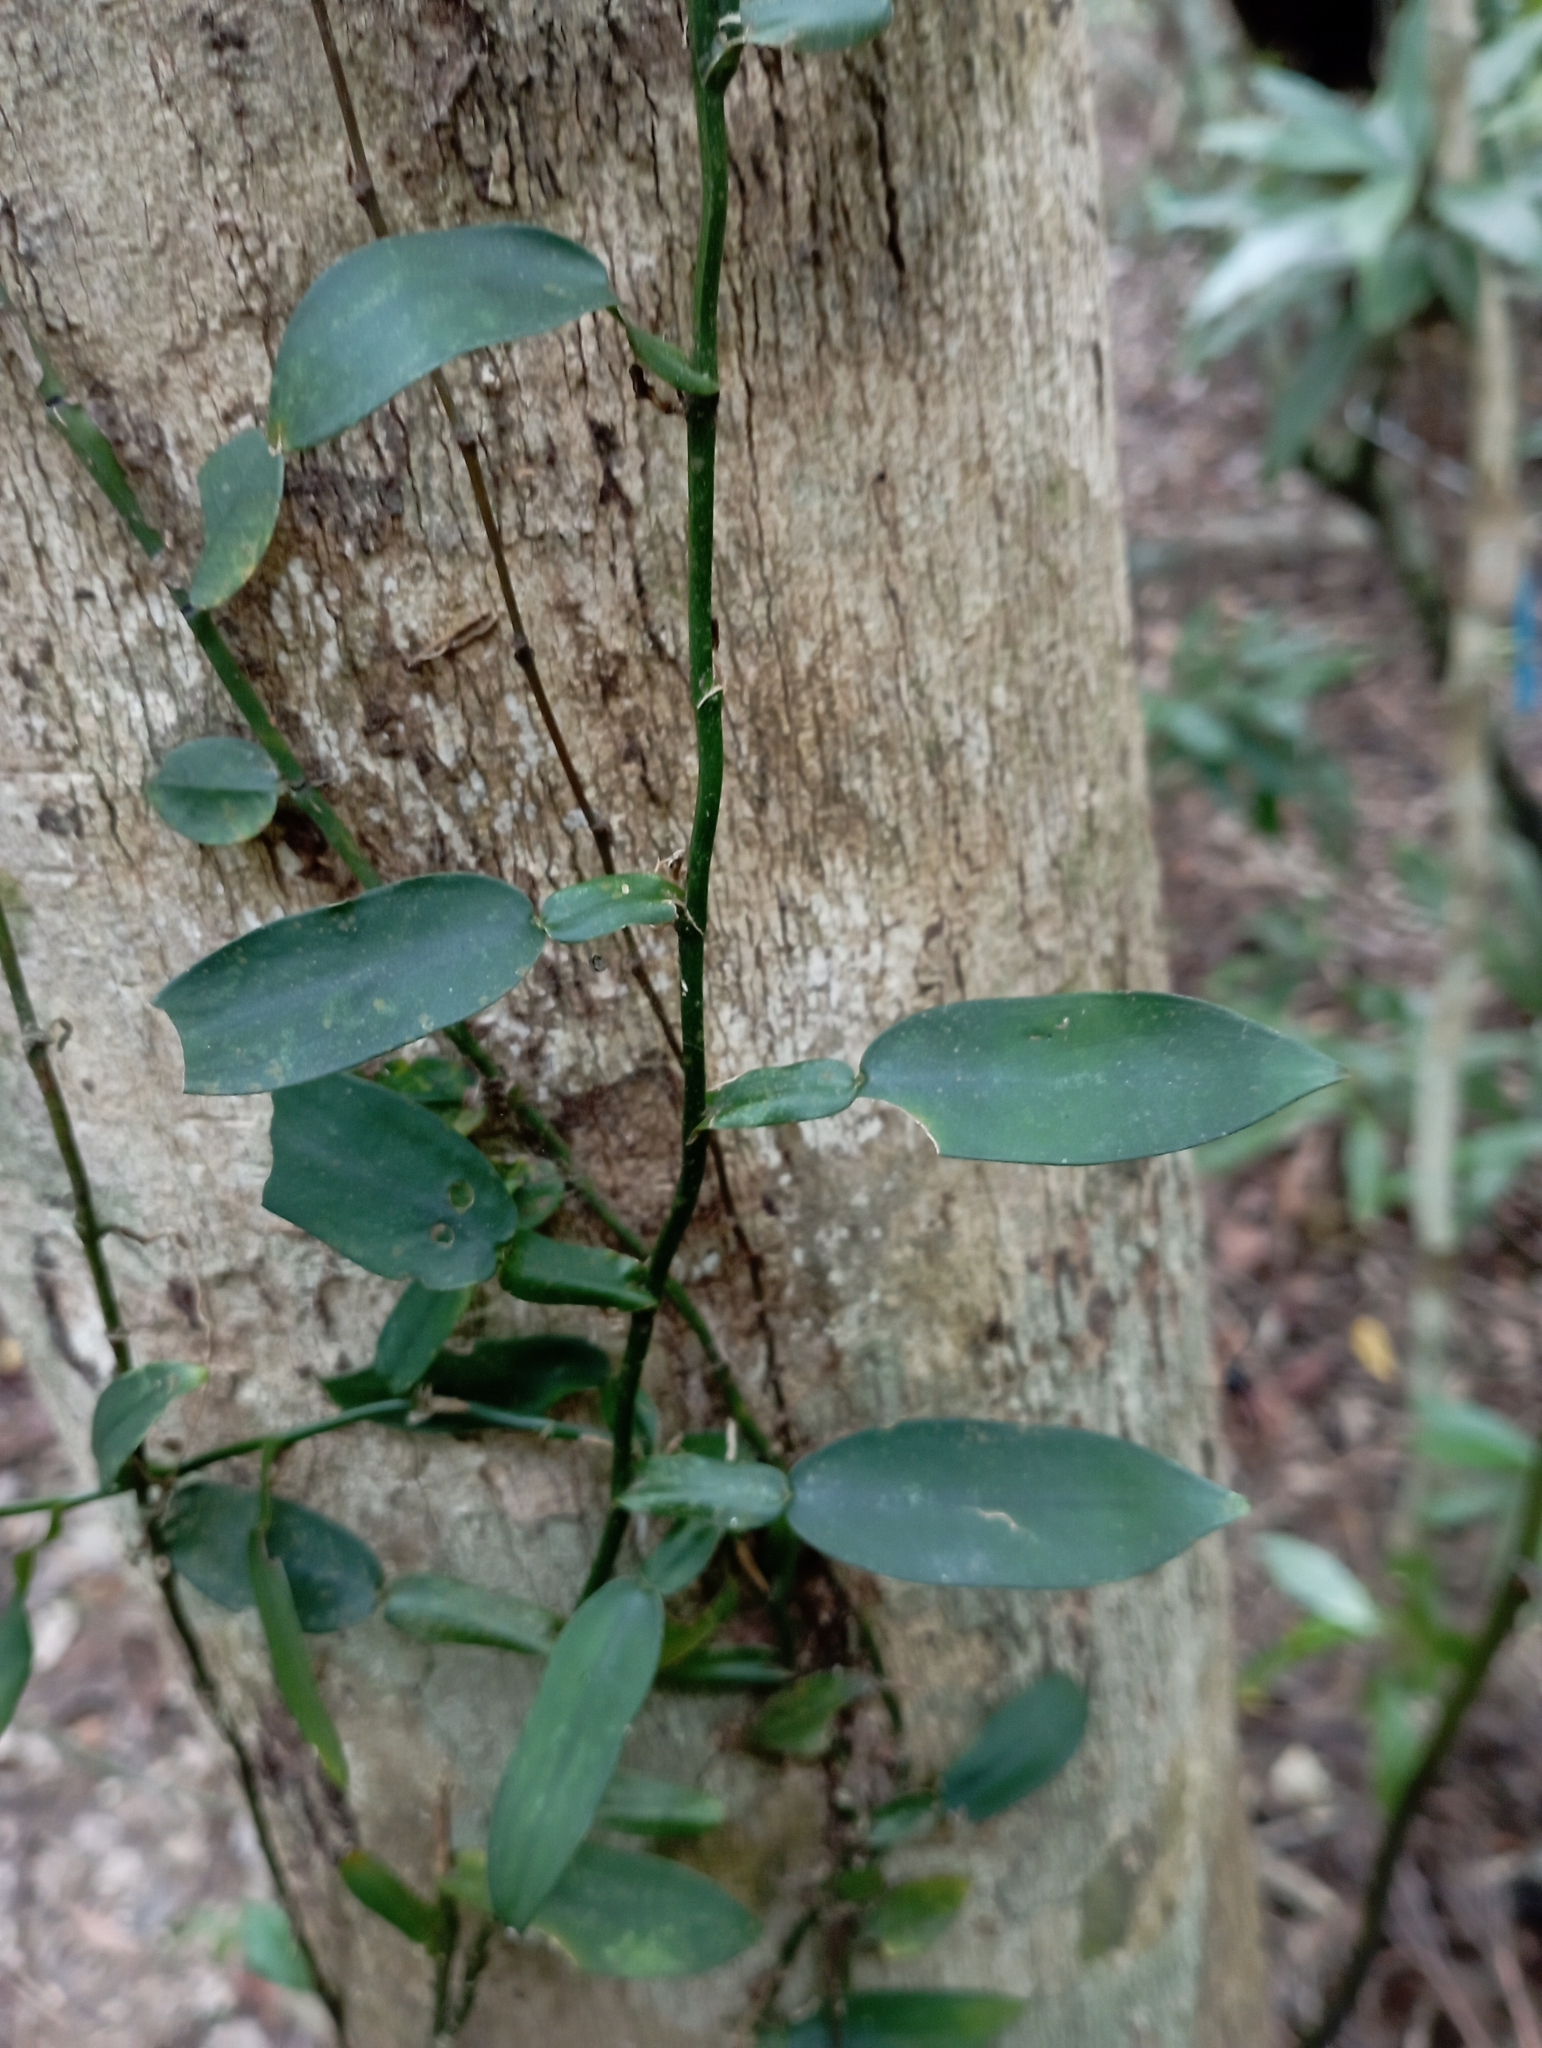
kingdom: Plantae
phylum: Tracheophyta
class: Liliopsida
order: Alismatales
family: Araceae
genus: Pothos
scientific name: Pothos chinensis
